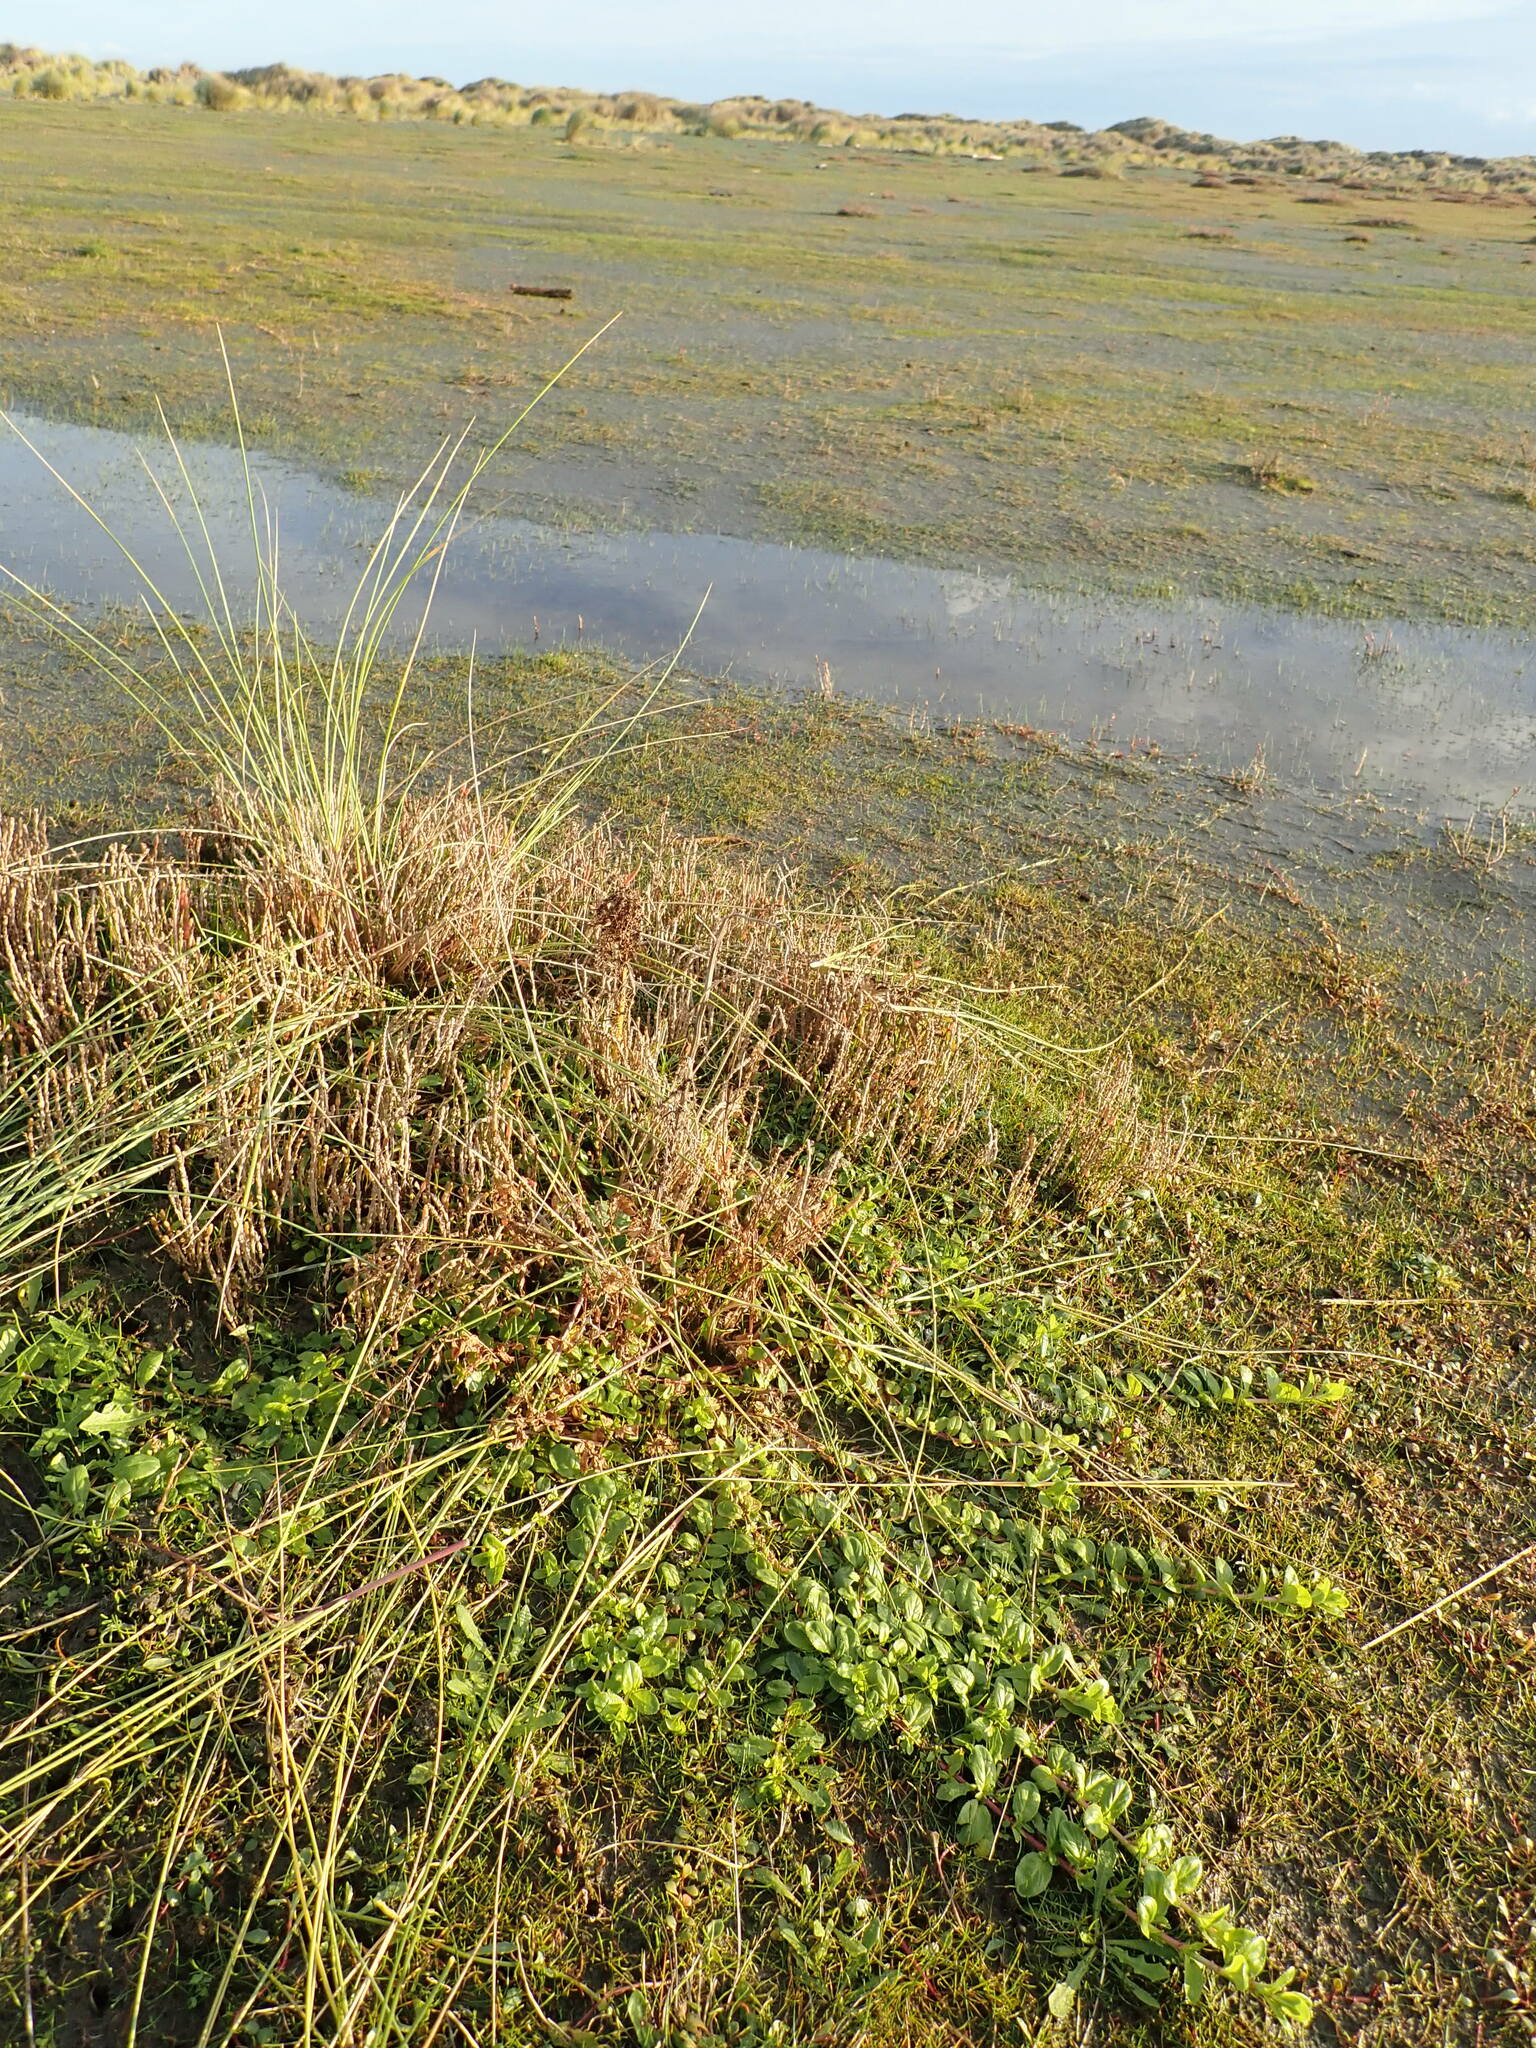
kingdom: Plantae
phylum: Tracheophyta
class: Magnoliopsida
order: Myrtales
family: Onagraceae
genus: Epilobium
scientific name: Epilobium billardiereanum
